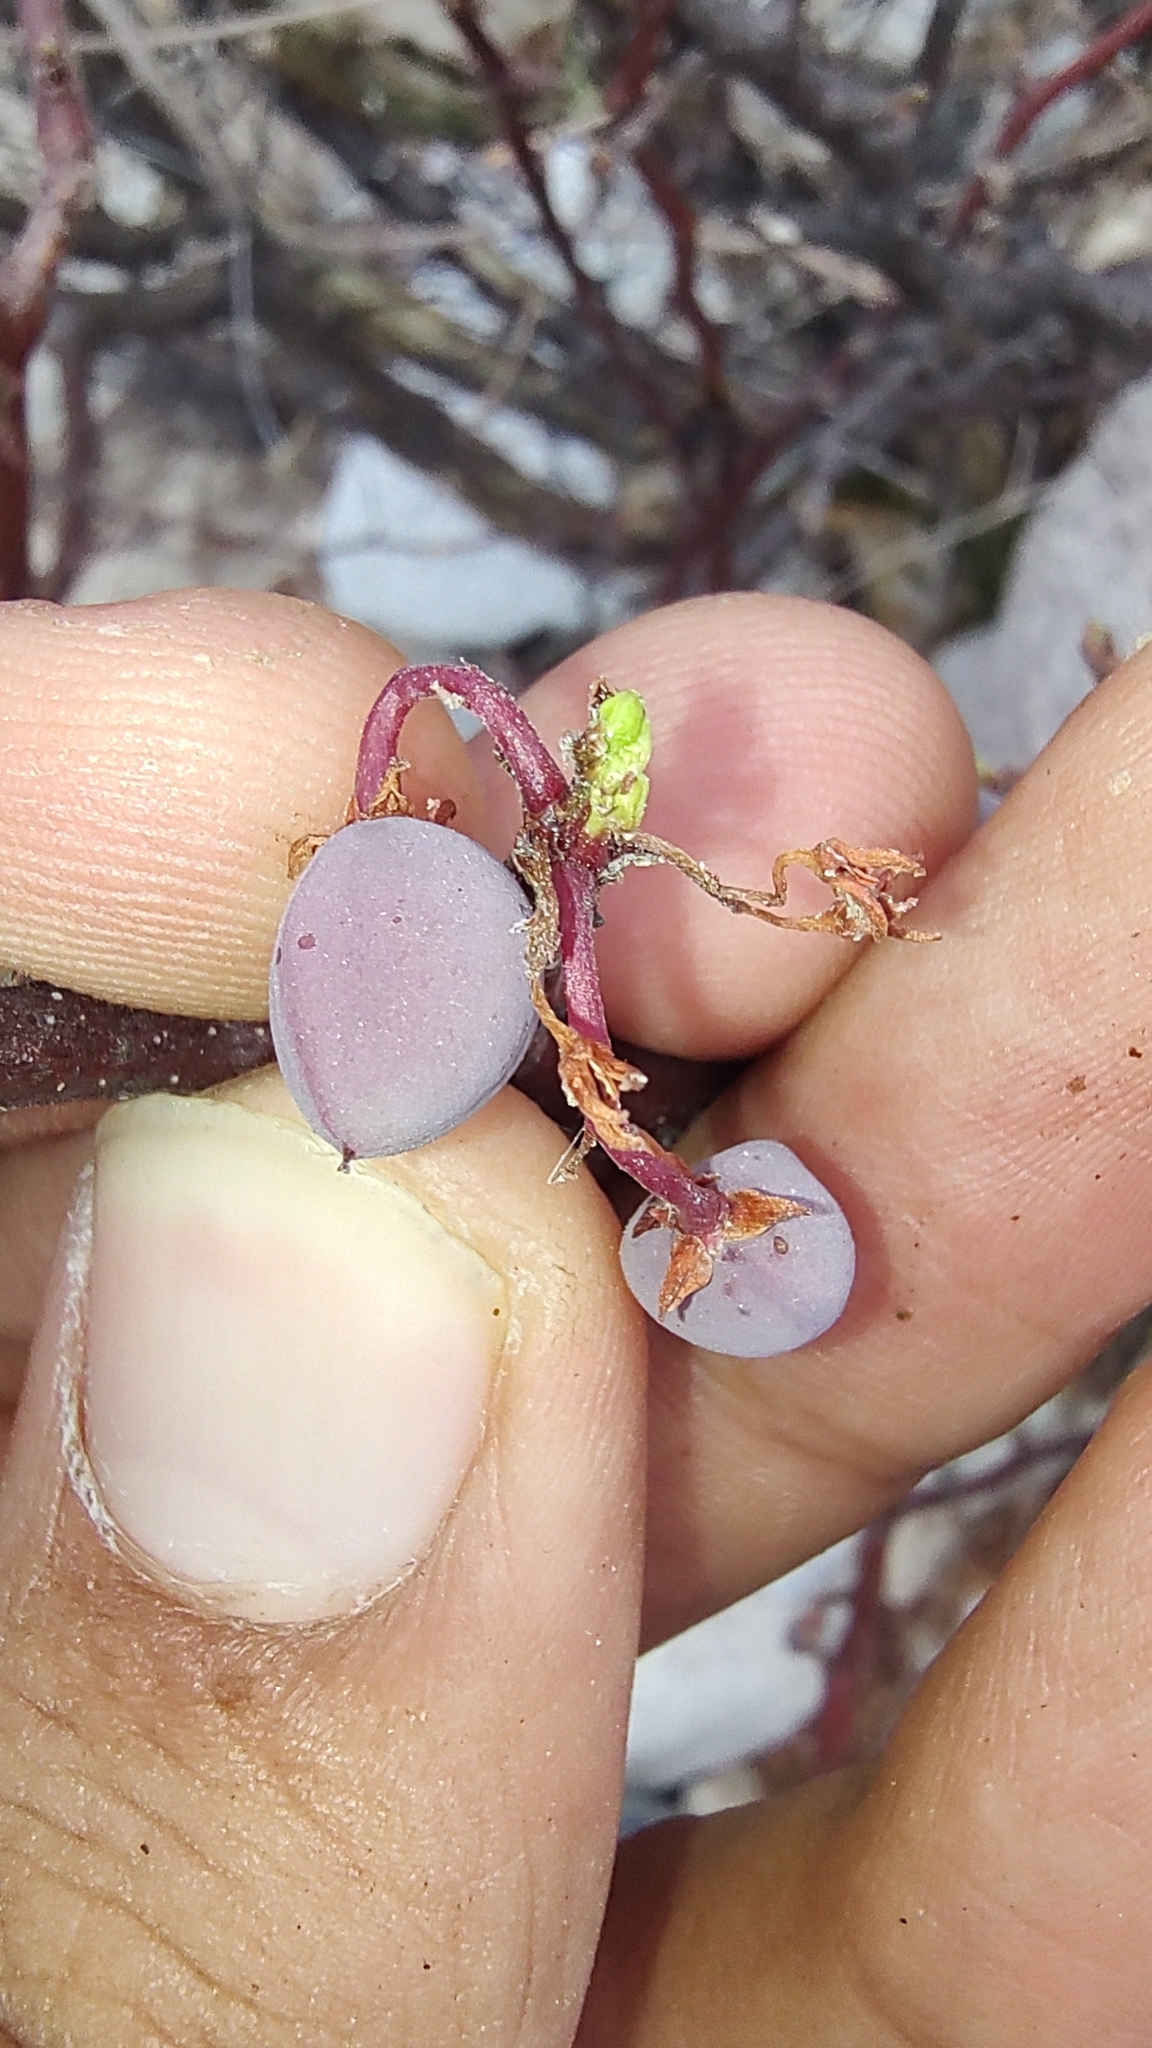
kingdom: Plantae
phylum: Tracheophyta
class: Magnoliopsida
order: Sapindales
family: Burseraceae
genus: Bursera
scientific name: Bursera microphylla
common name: Elephant tree
